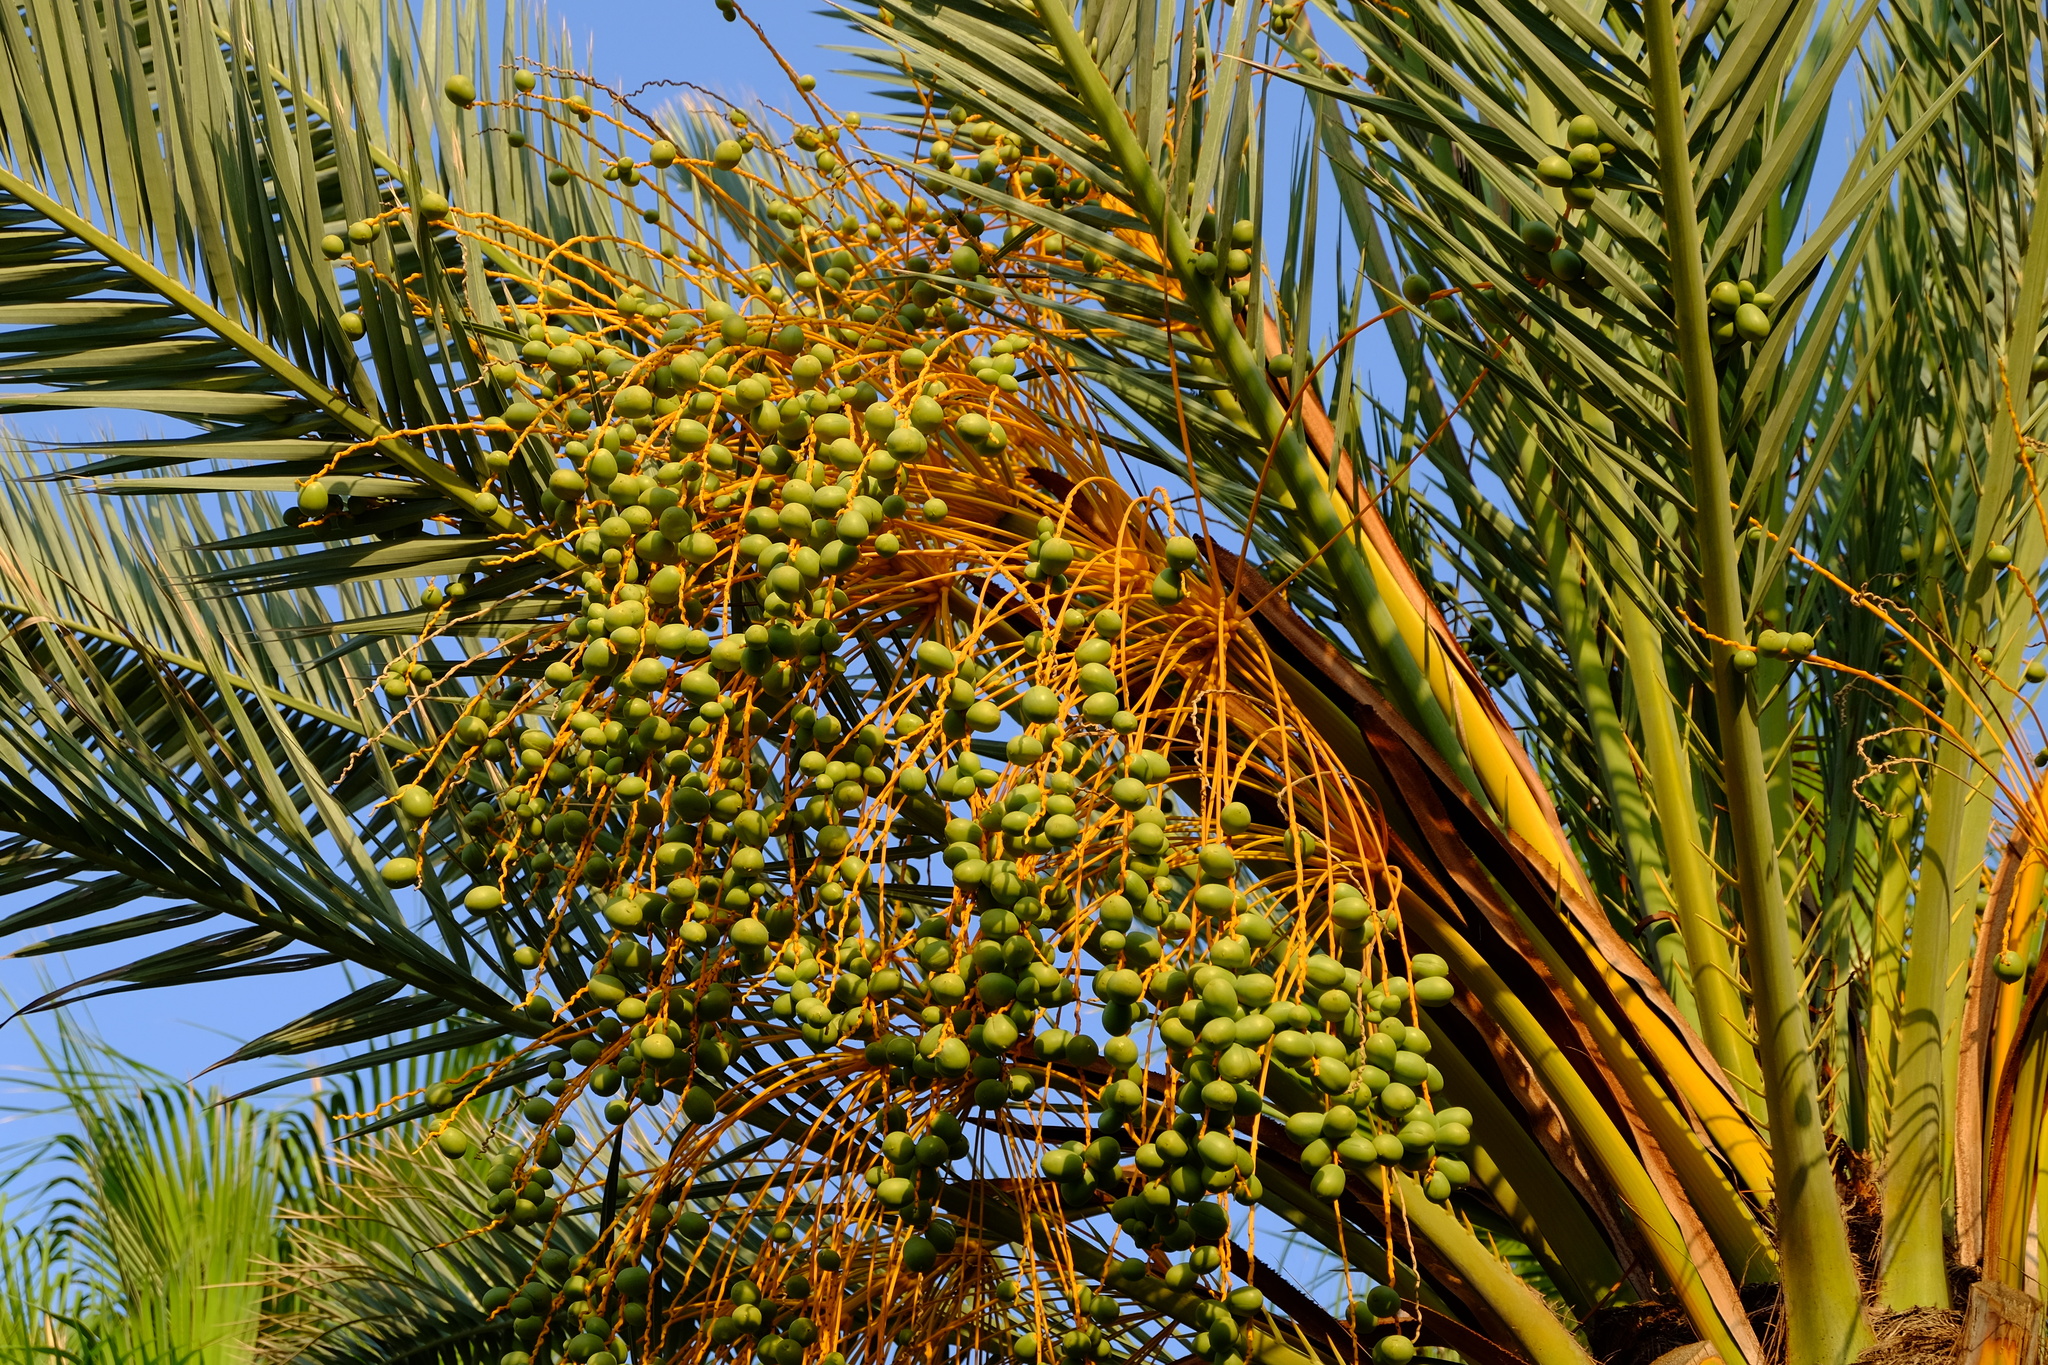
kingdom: Plantae
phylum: Tracheophyta
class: Liliopsida
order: Arecales
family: Arecaceae
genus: Phoenix
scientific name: Phoenix dactylifera
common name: Date palm
